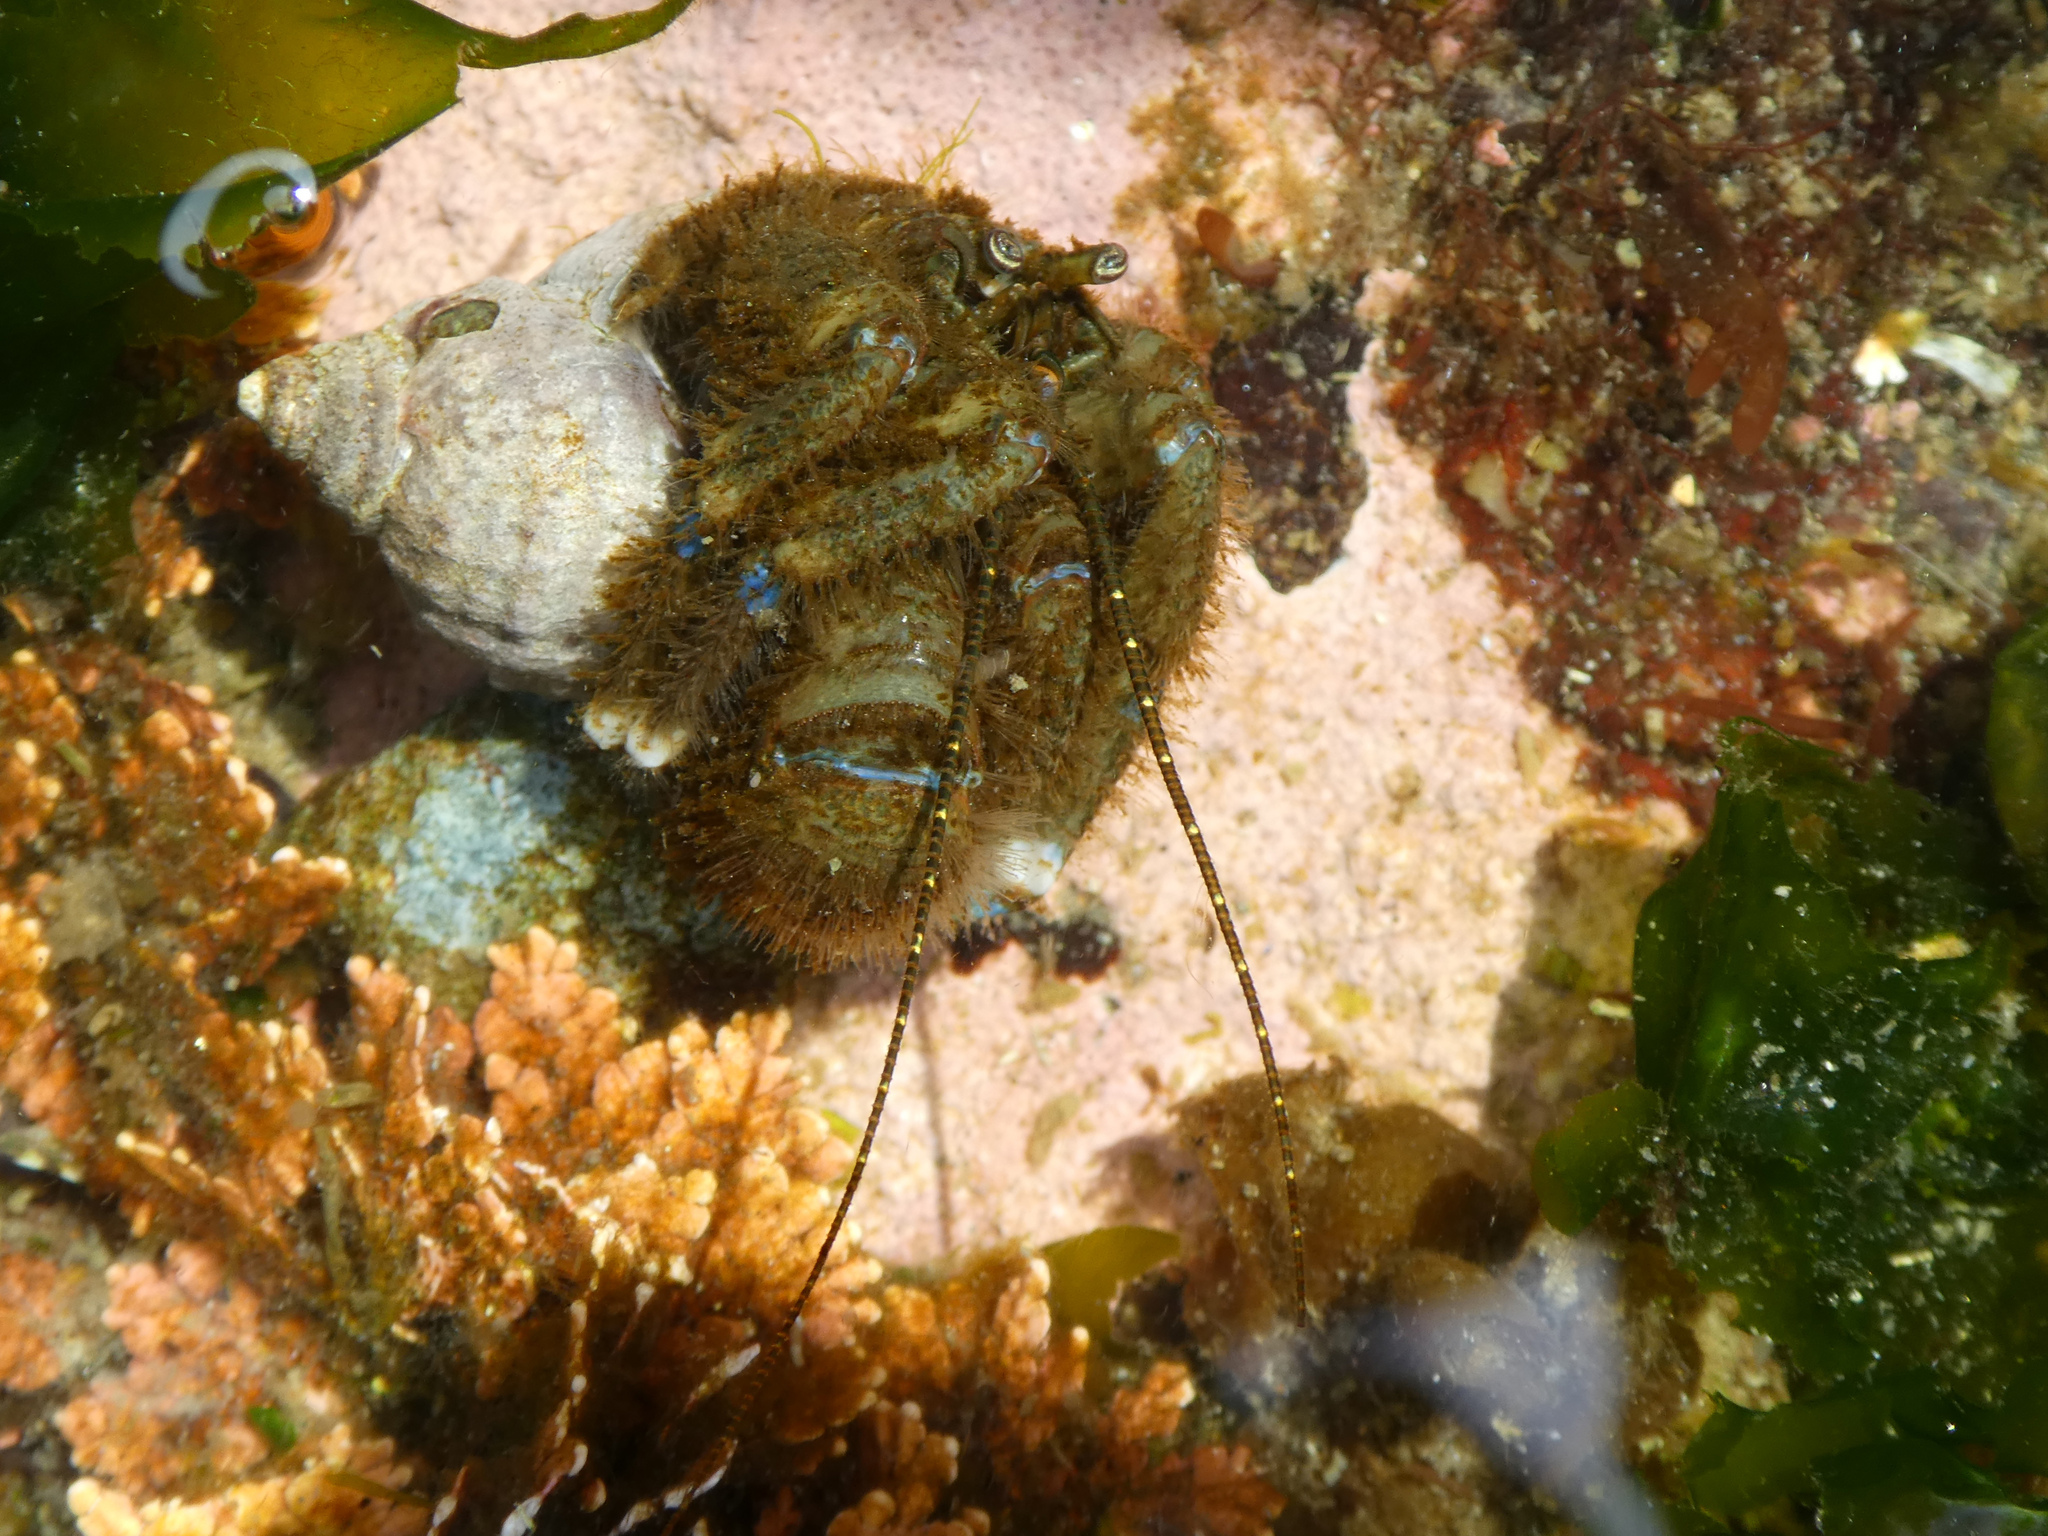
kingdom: Animalia
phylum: Arthropoda
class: Malacostraca
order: Decapoda
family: Paguridae
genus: Pagurus
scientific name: Pagurus hirsutiusculus
